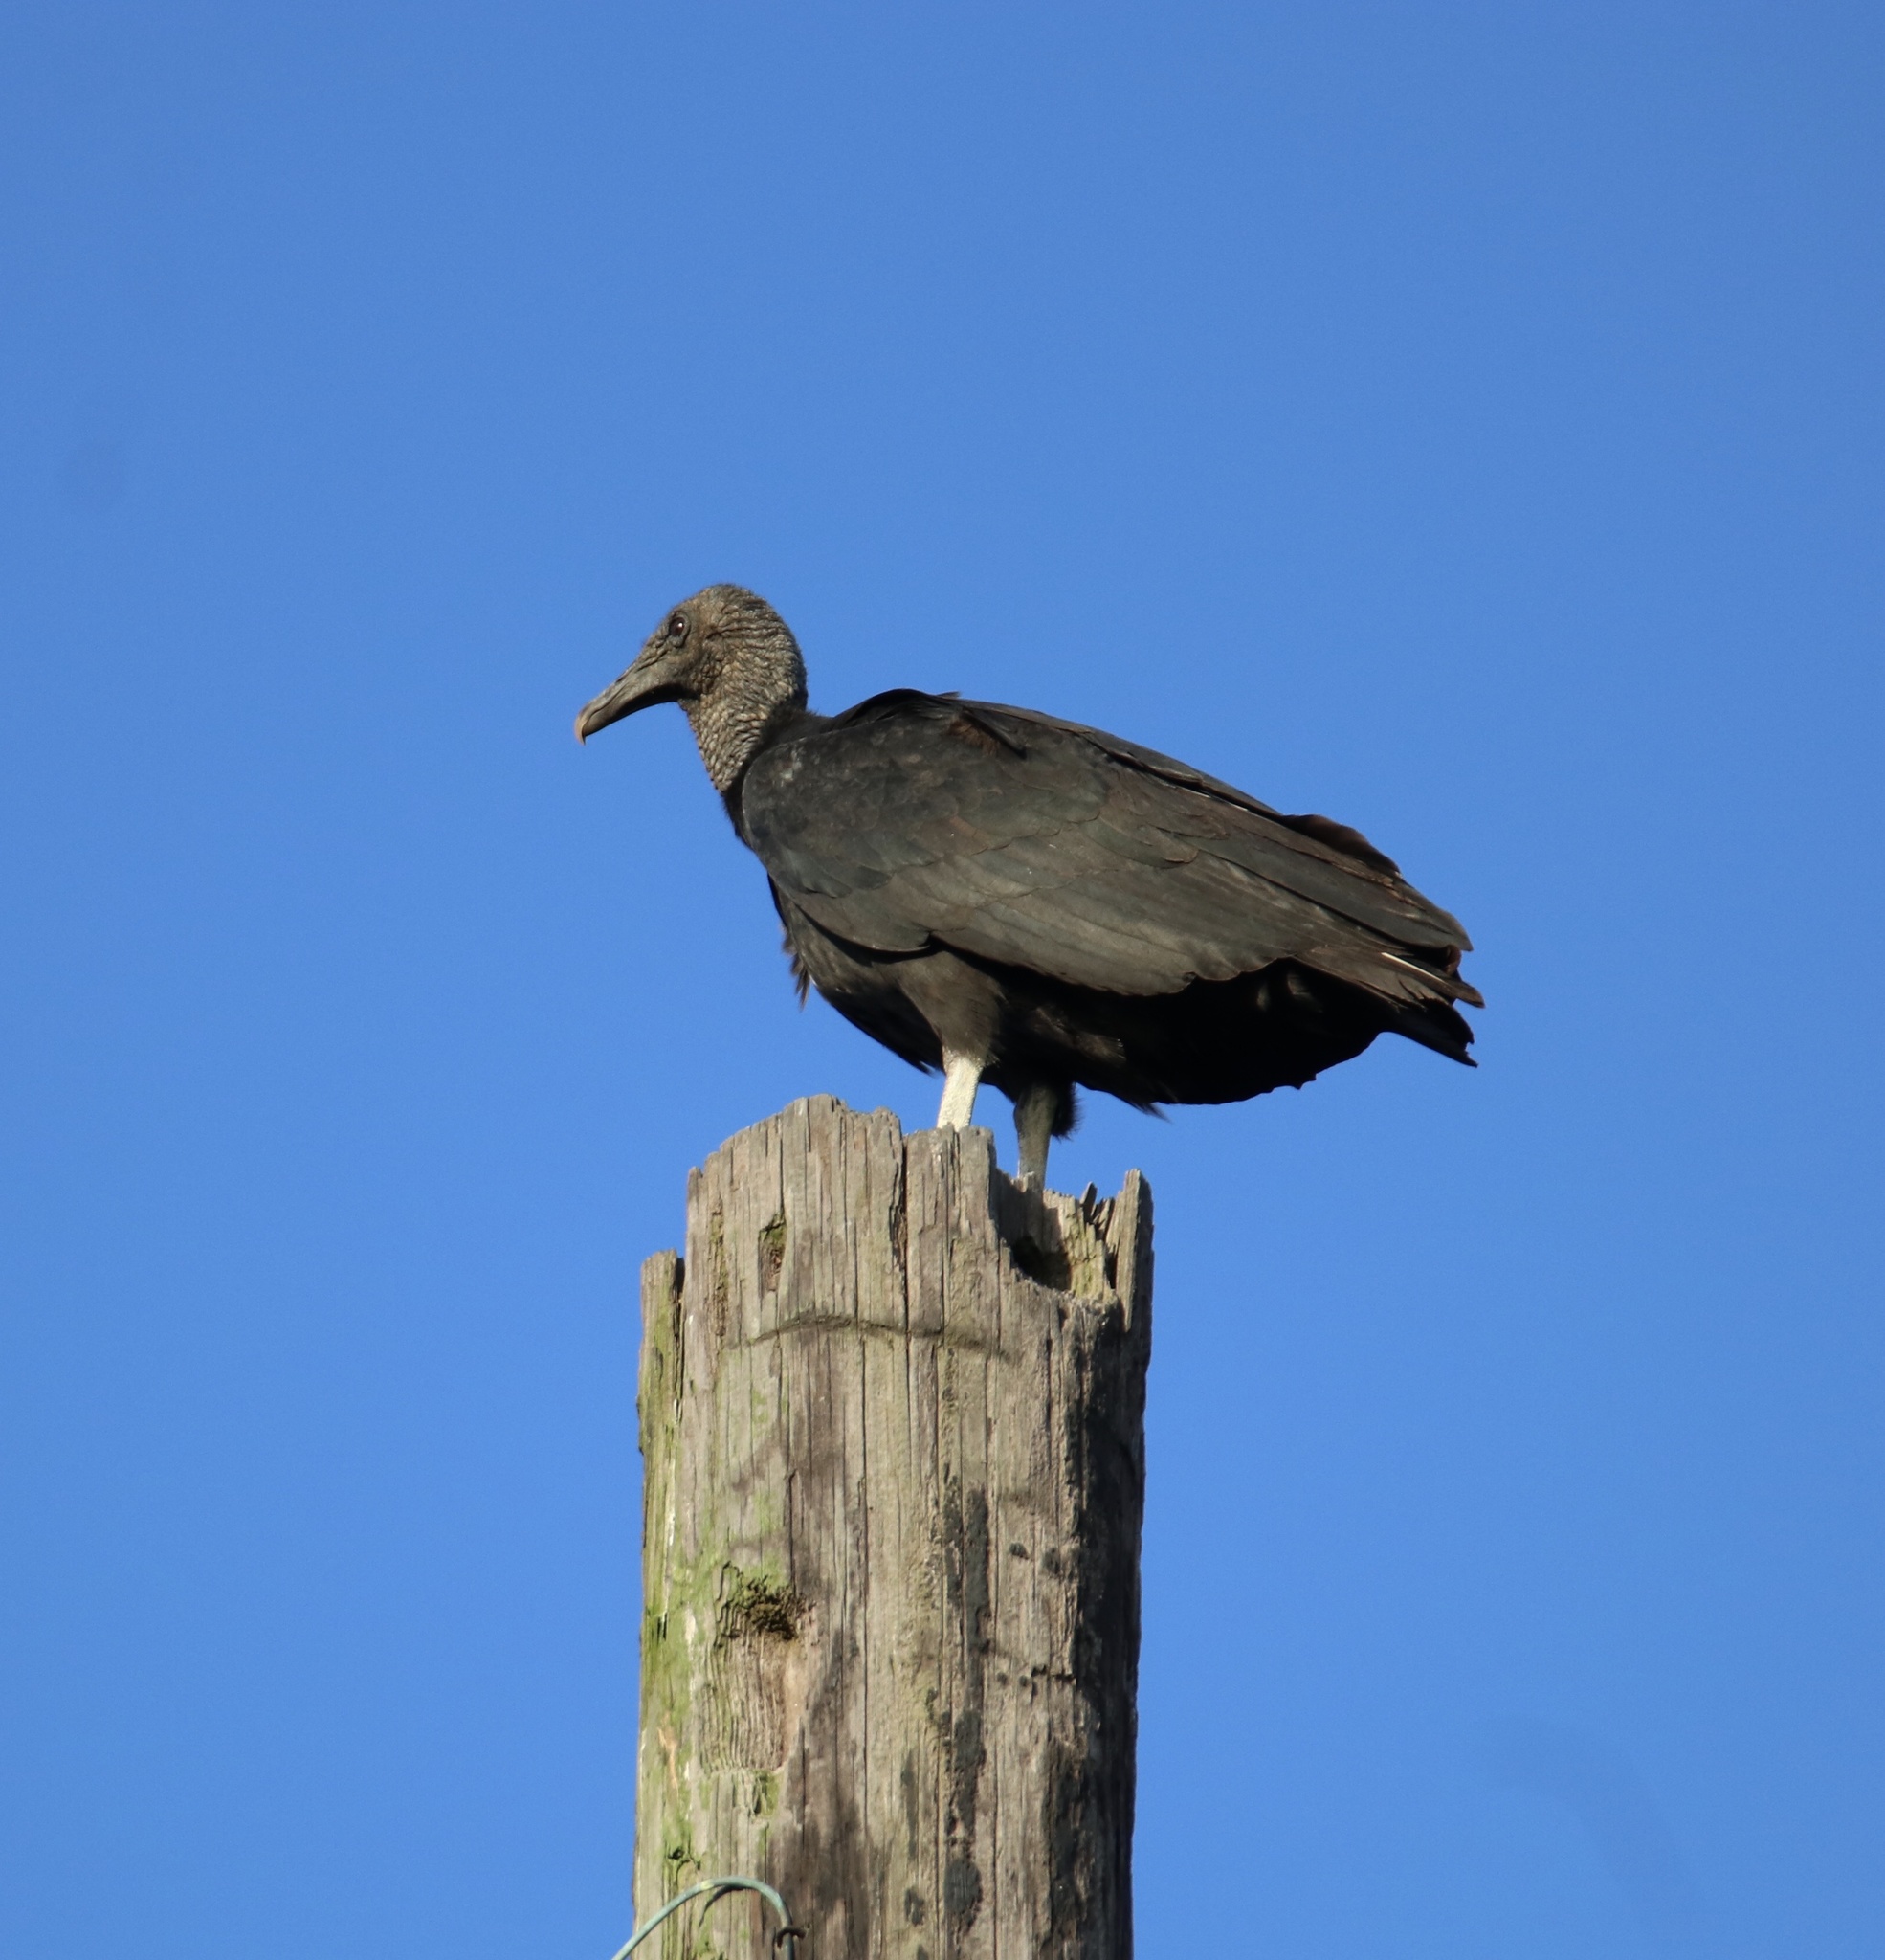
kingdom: Animalia
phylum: Chordata
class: Aves
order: Accipitriformes
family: Cathartidae
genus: Coragyps
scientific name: Coragyps atratus
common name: Black vulture
